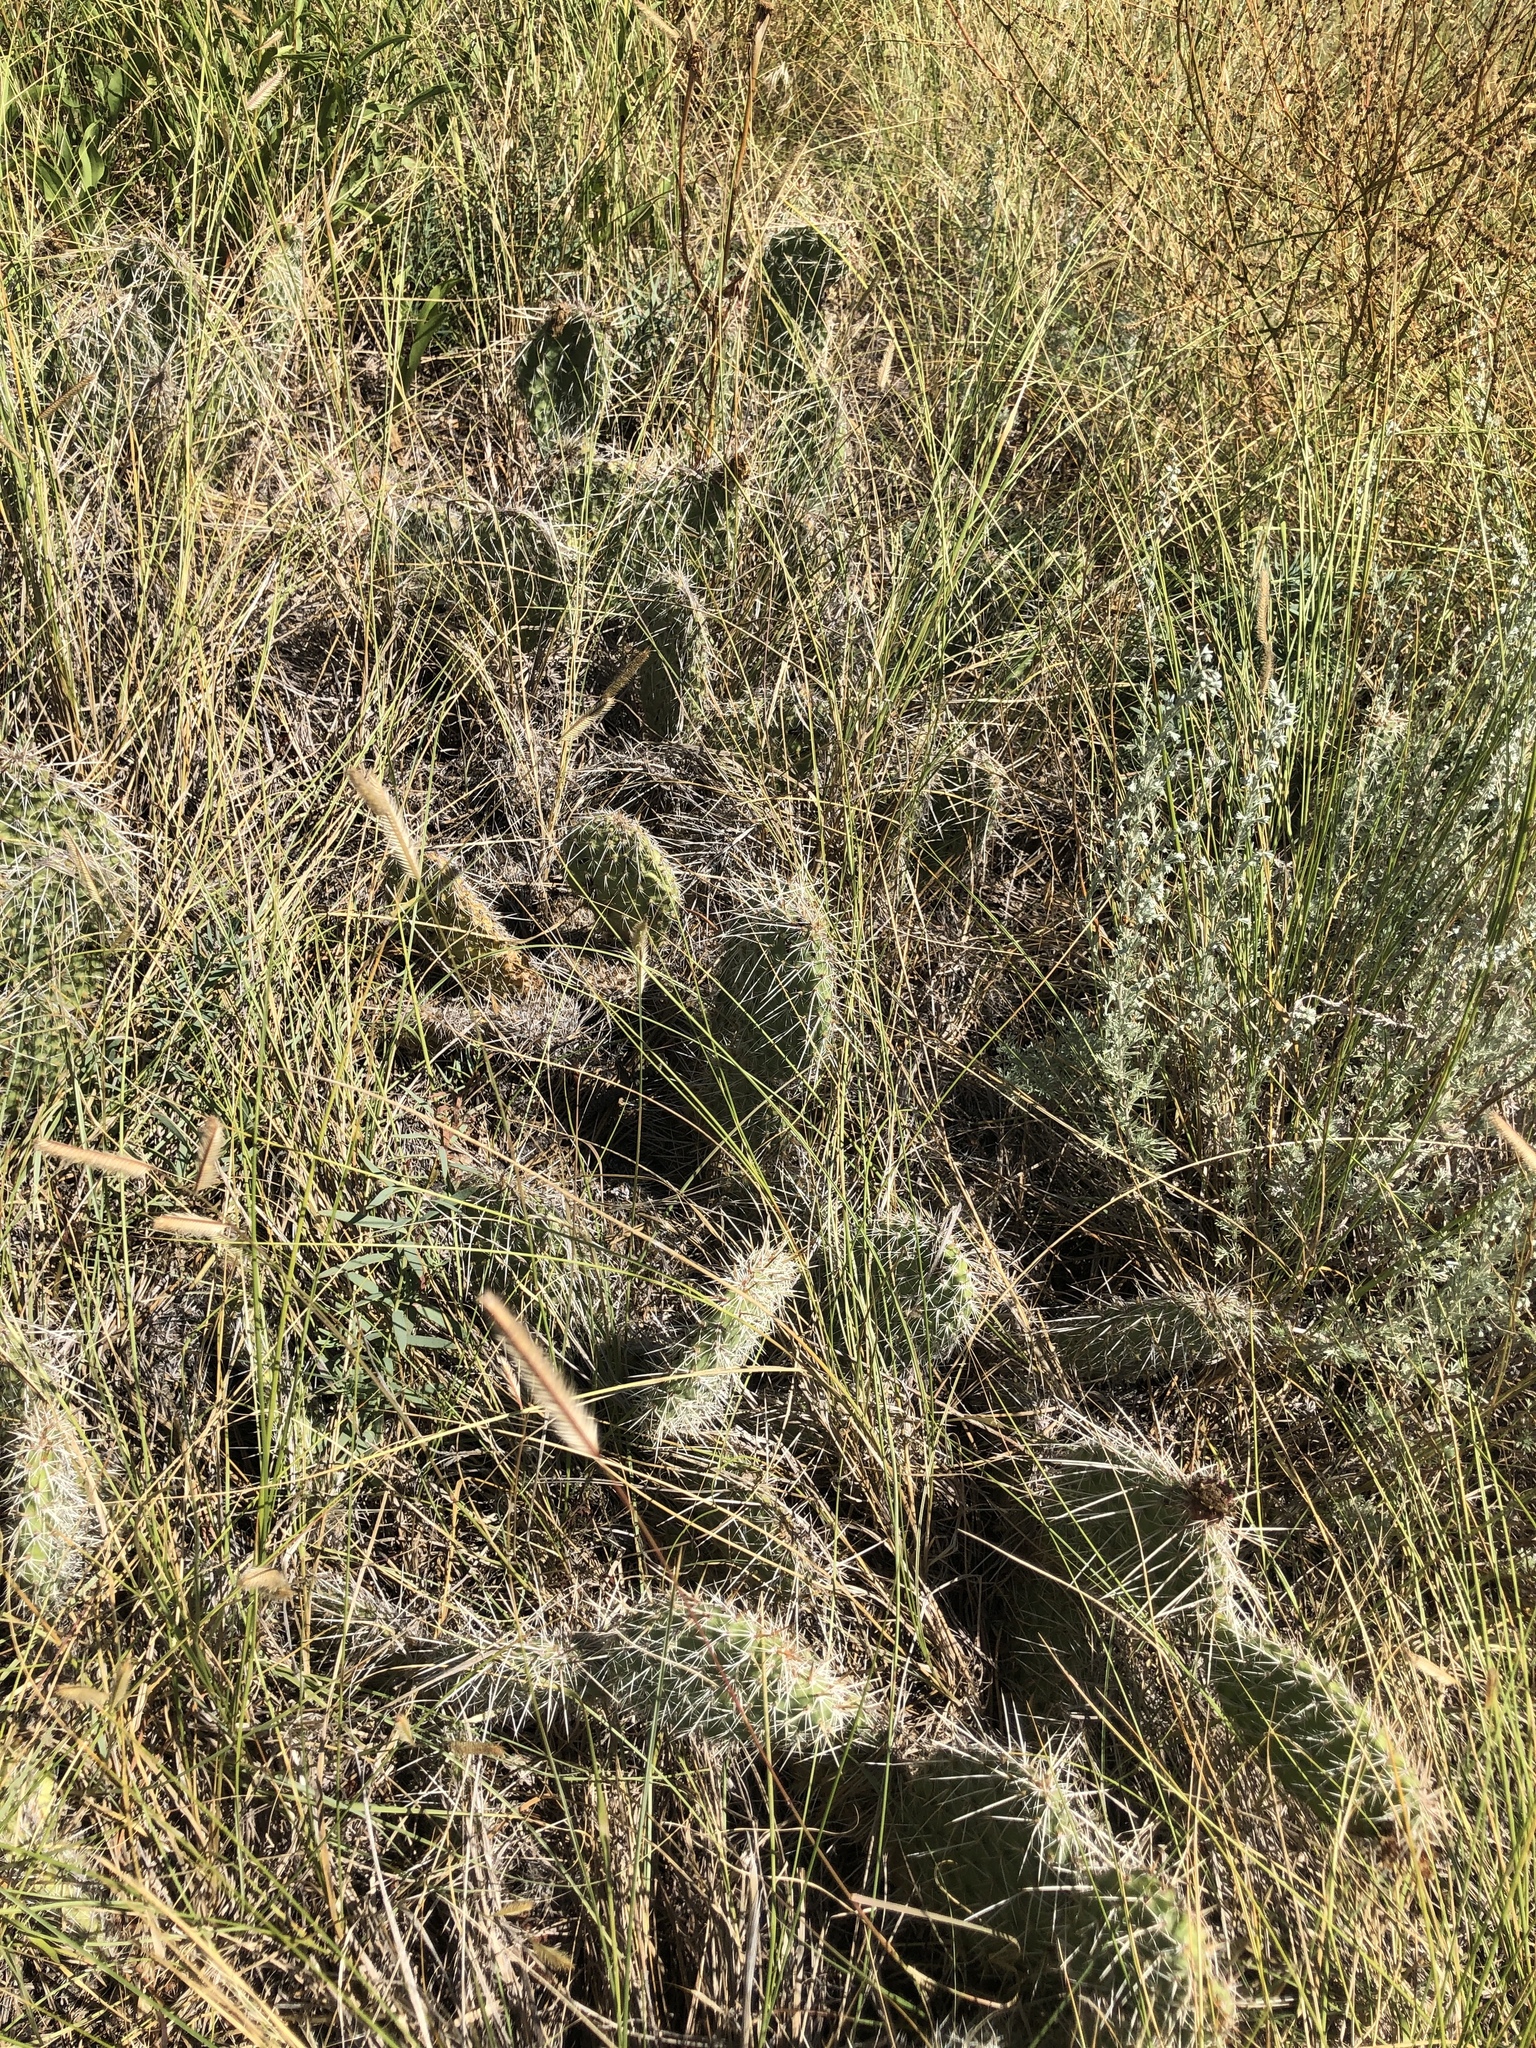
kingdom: Plantae
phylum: Tracheophyta
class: Magnoliopsida
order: Caryophyllales
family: Cactaceae
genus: Opuntia
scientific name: Opuntia polyacantha
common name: Plains prickly-pear
